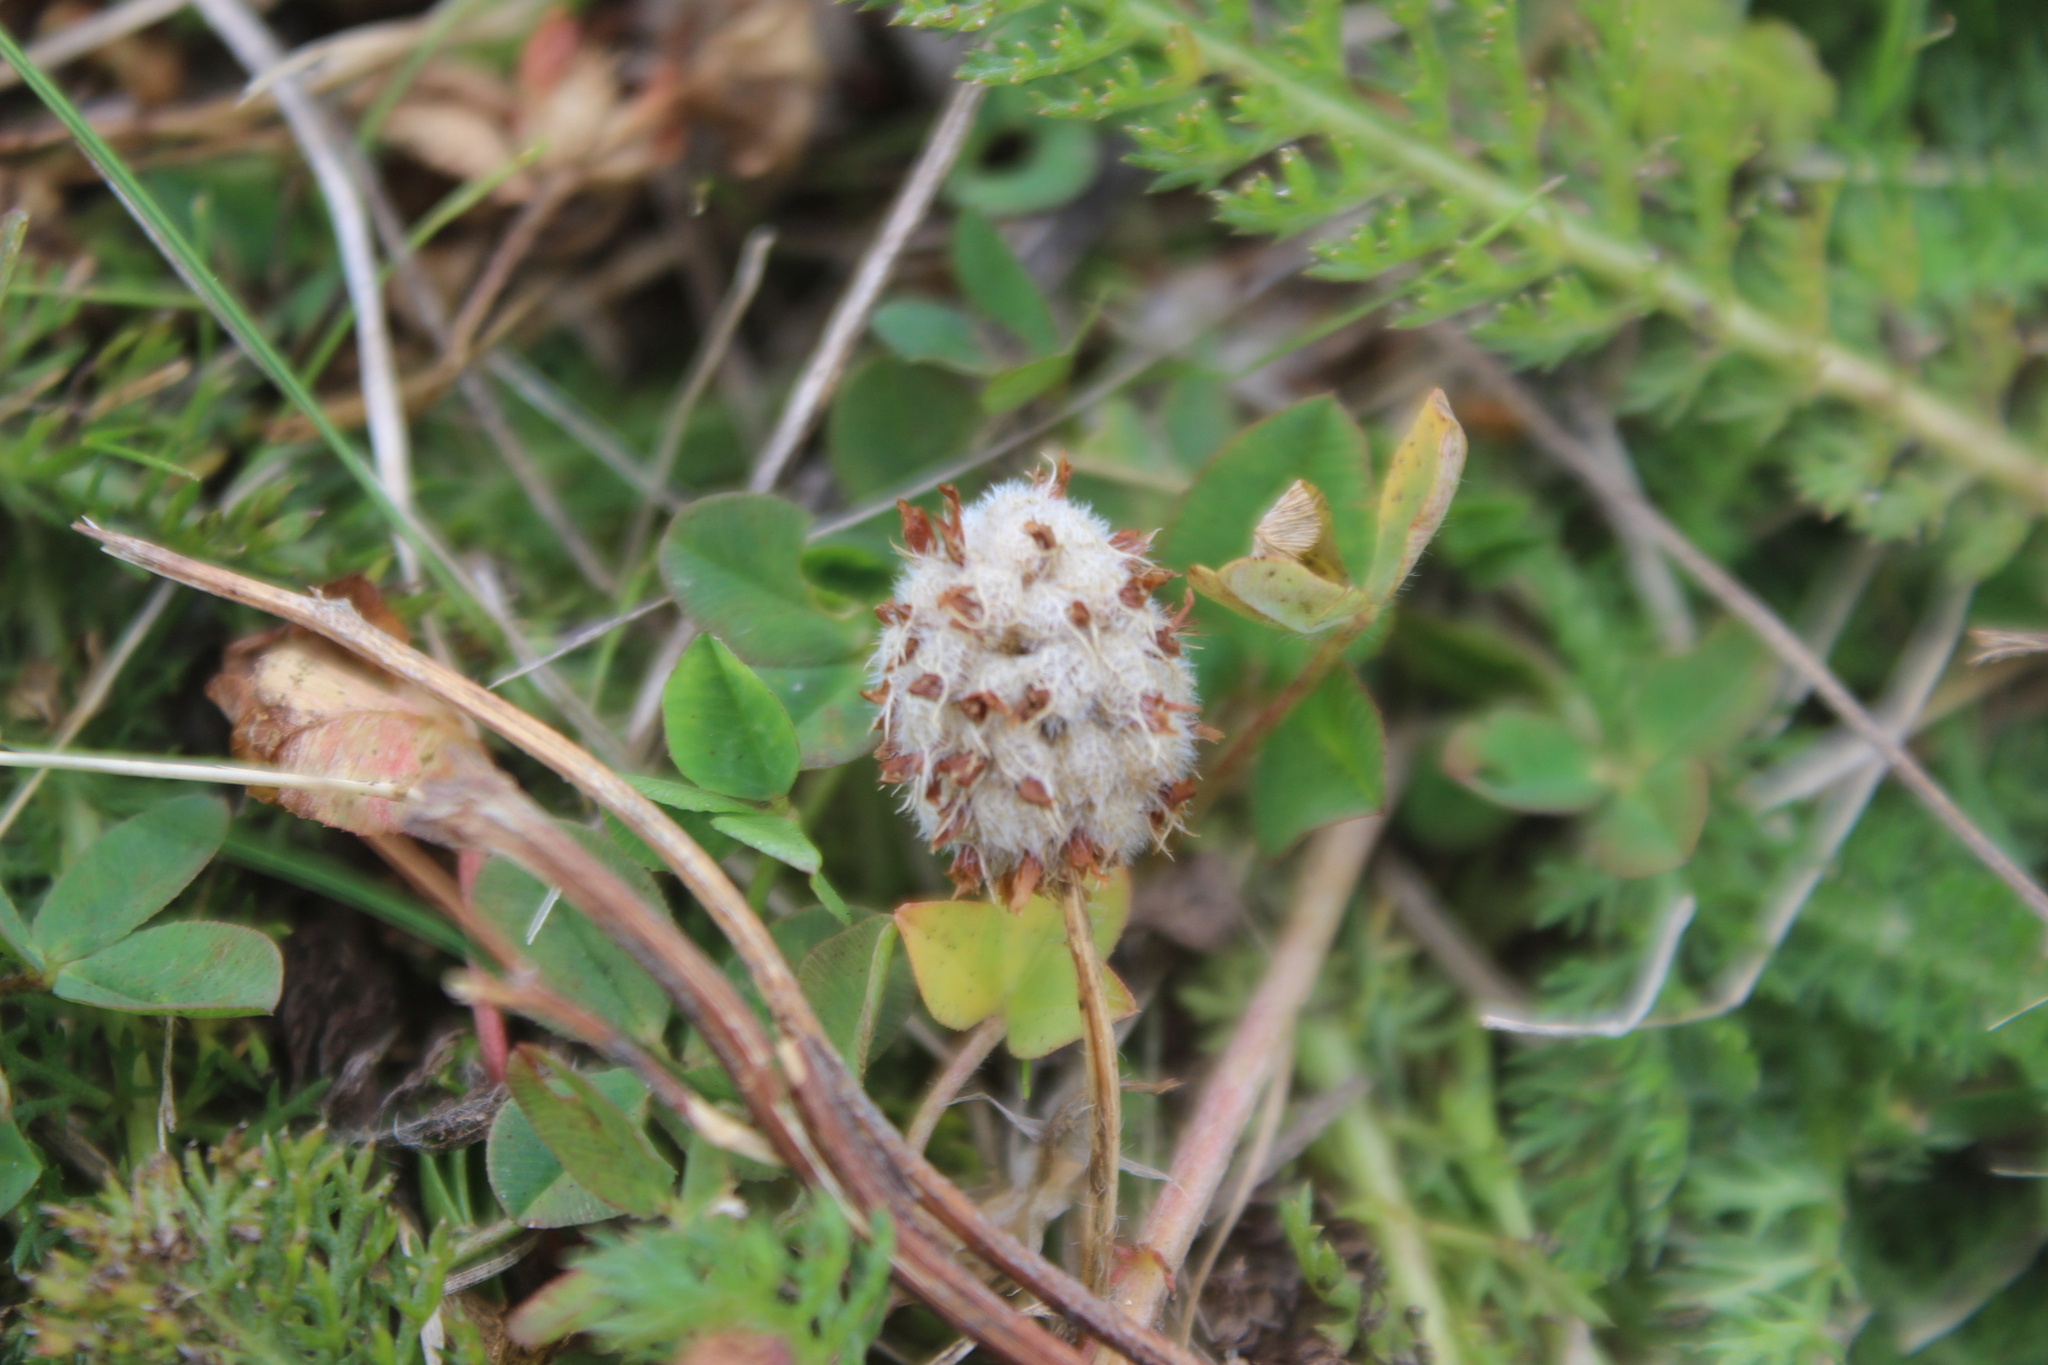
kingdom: Plantae
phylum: Tracheophyta
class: Magnoliopsida
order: Fabales
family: Fabaceae
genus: Trifolium
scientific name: Trifolium fragiferum
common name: Strawberry clover
